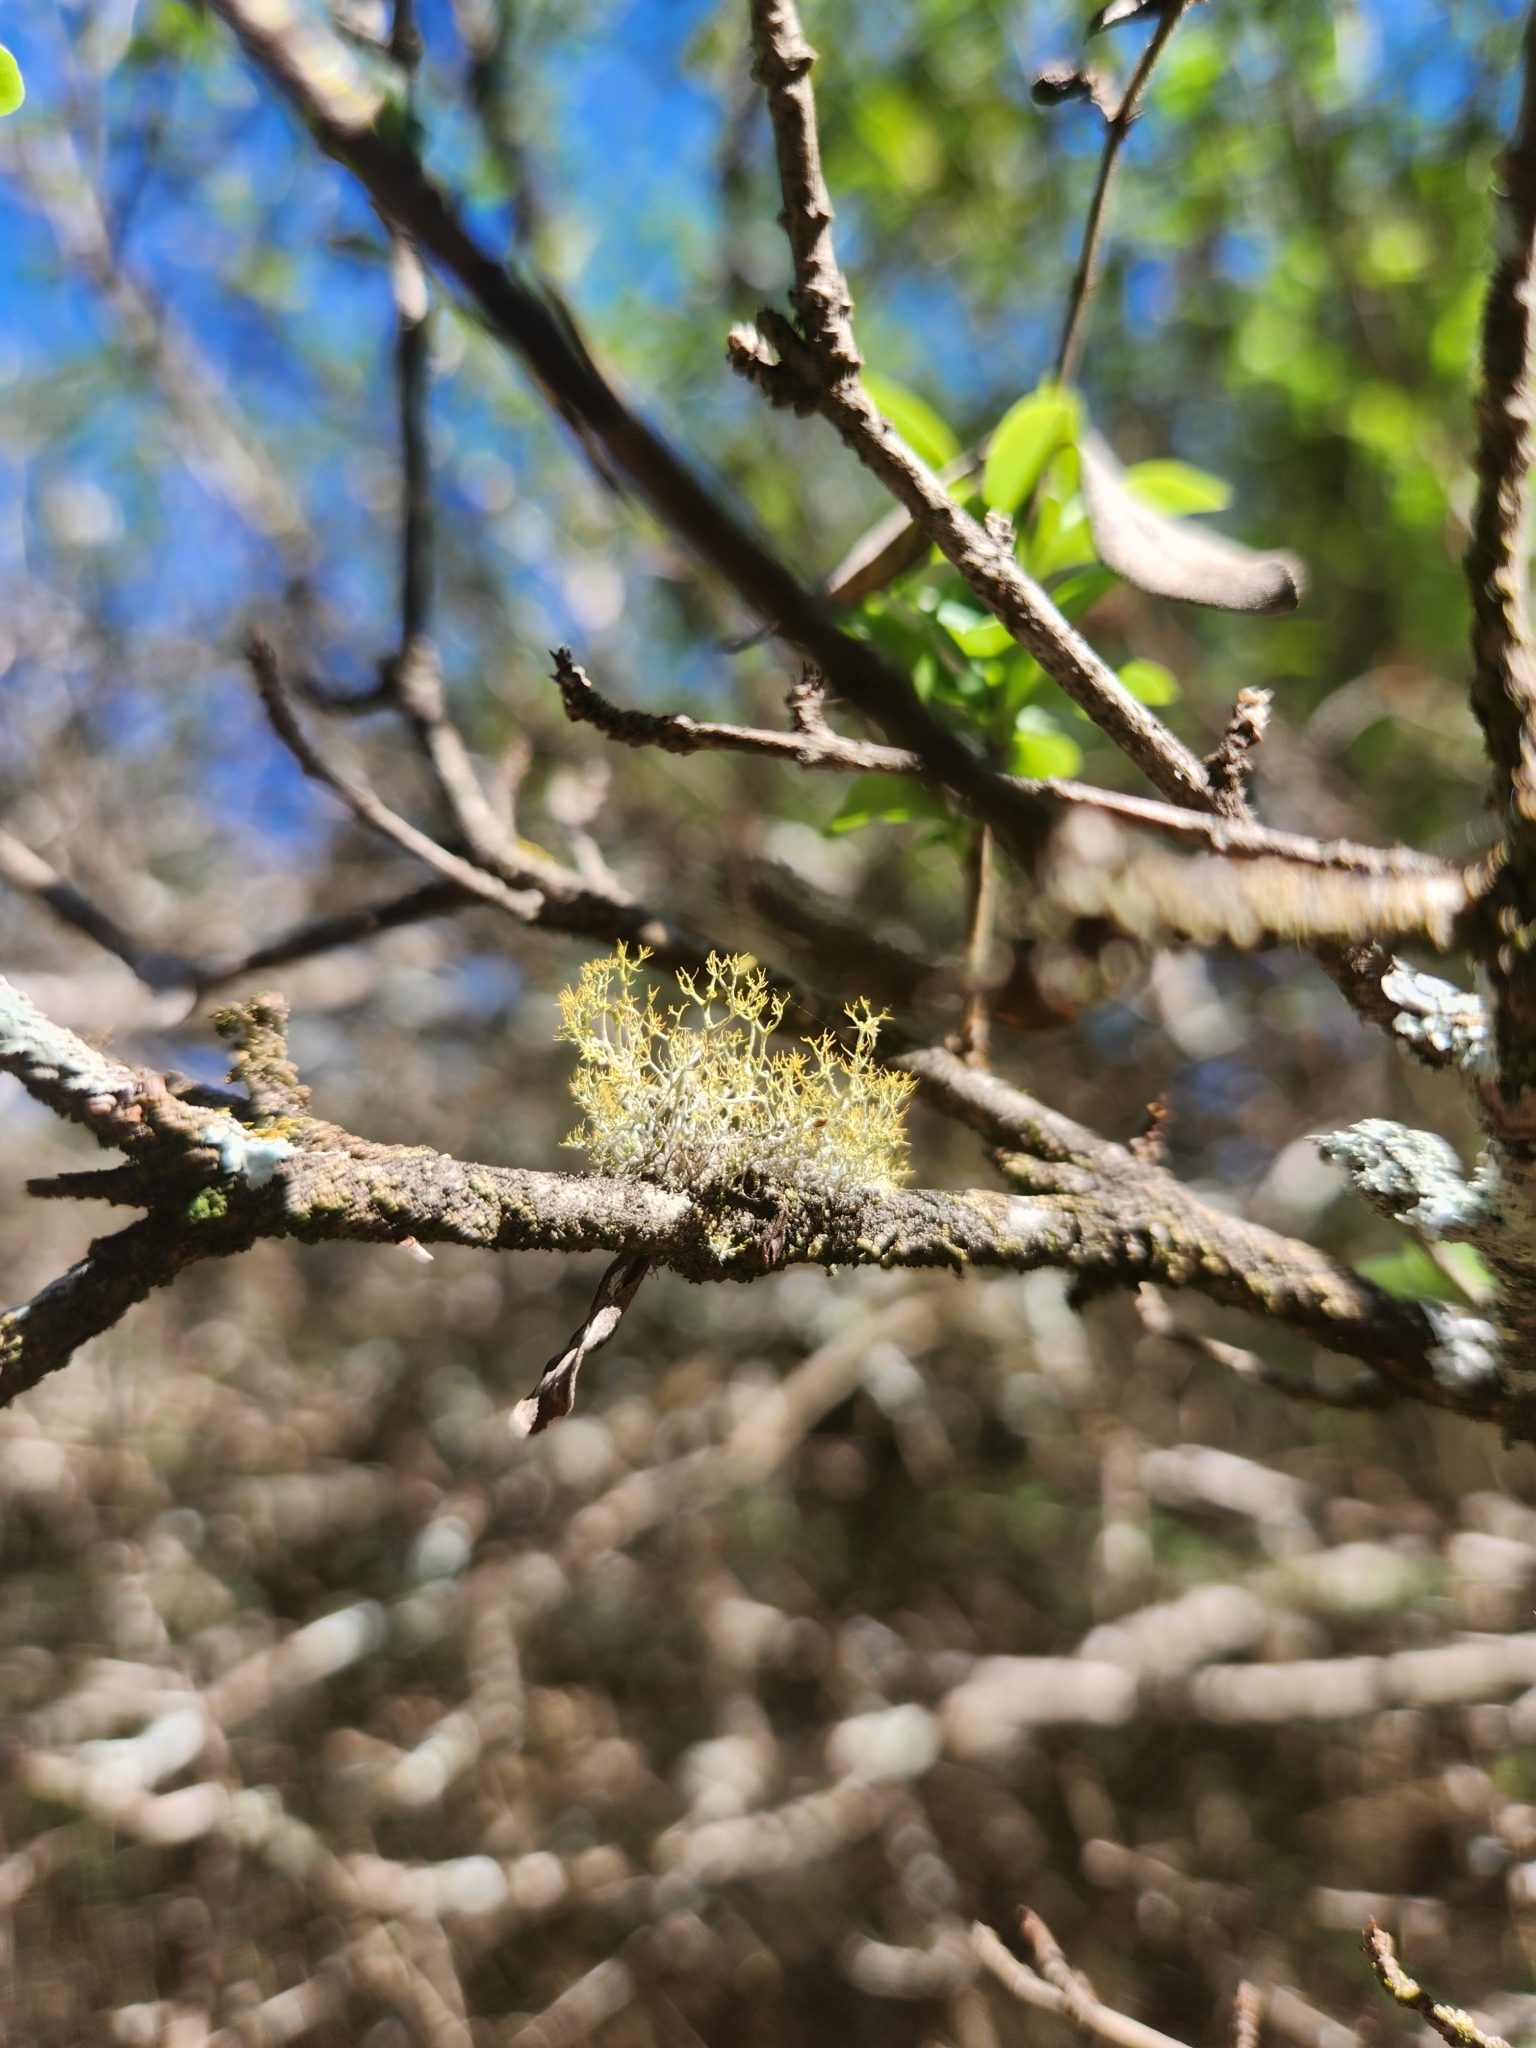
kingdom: Fungi
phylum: Ascomycota
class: Lecanoromycetes
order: Teloschistales
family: Teloschistaceae
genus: Teloschistes
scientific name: Teloschistes exilis
